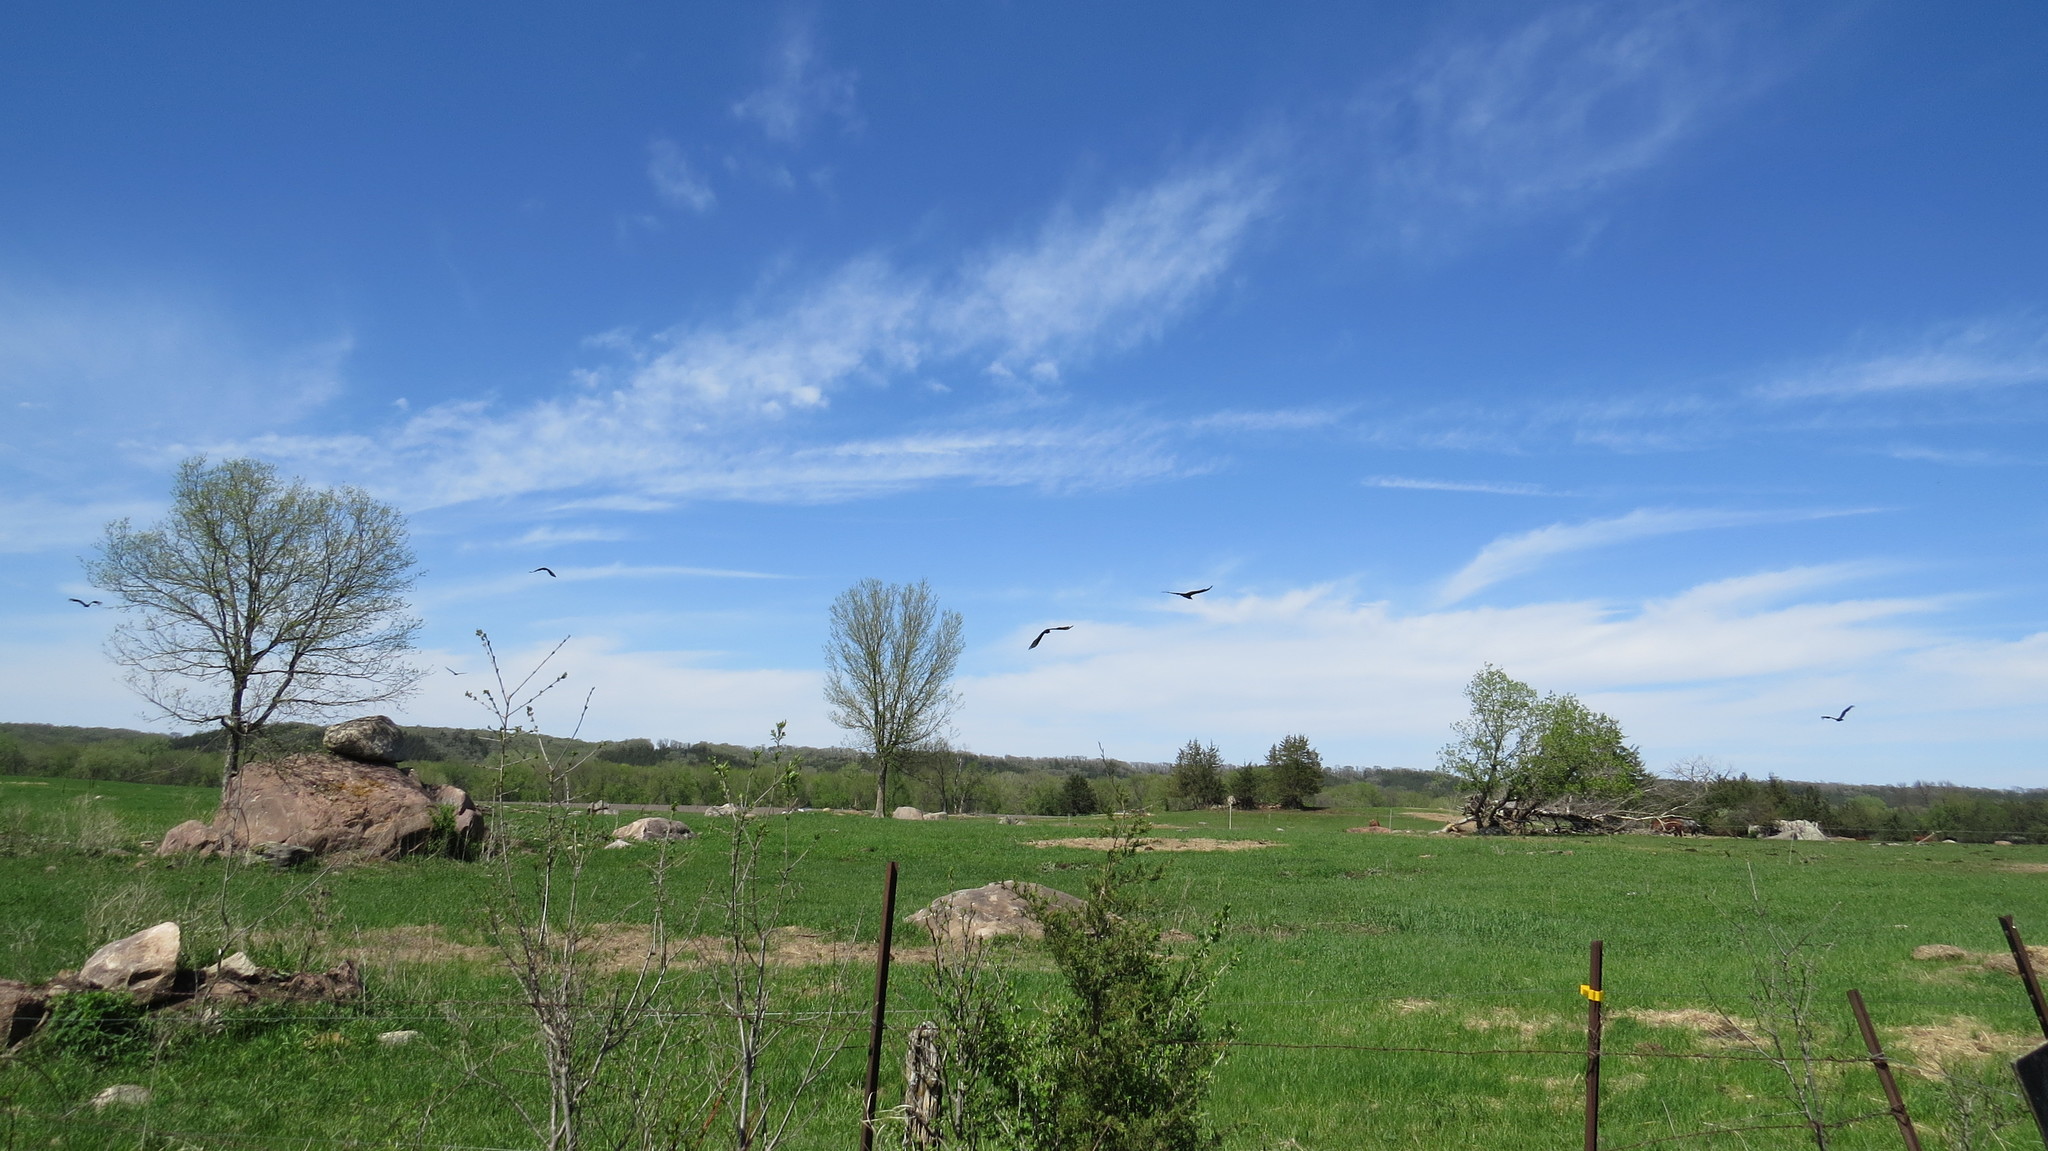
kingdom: Animalia
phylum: Chordata
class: Aves
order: Accipitriformes
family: Cathartidae
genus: Cathartes
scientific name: Cathartes aura
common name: Turkey vulture
